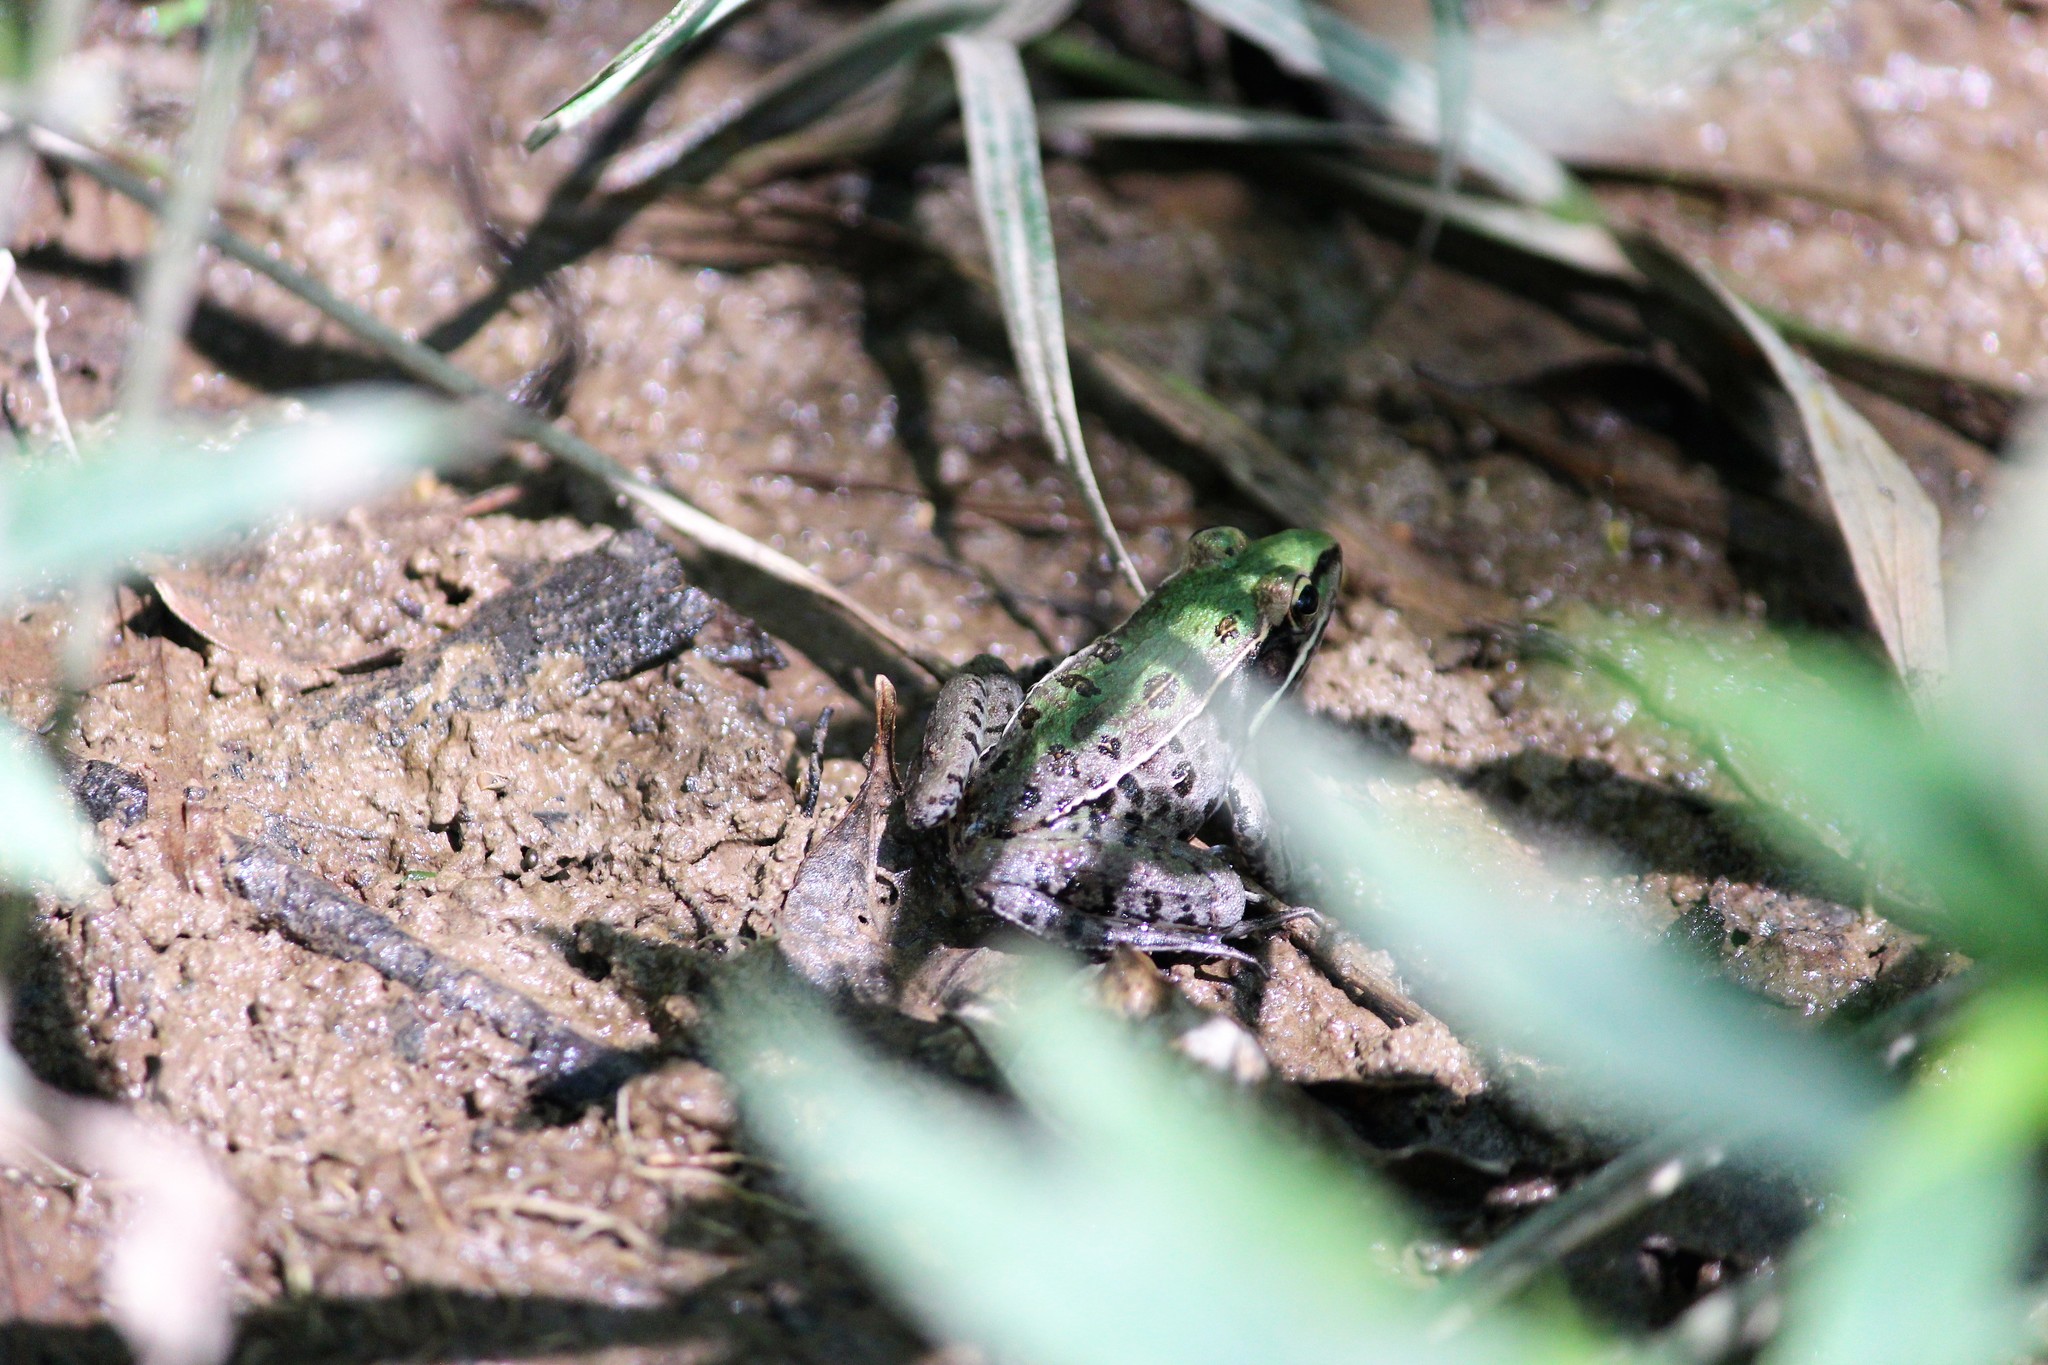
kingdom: Animalia
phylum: Chordata
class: Amphibia
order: Anura
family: Ranidae
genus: Lithobates
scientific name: Lithobates sphenocephalus
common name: Southern leopard frog
